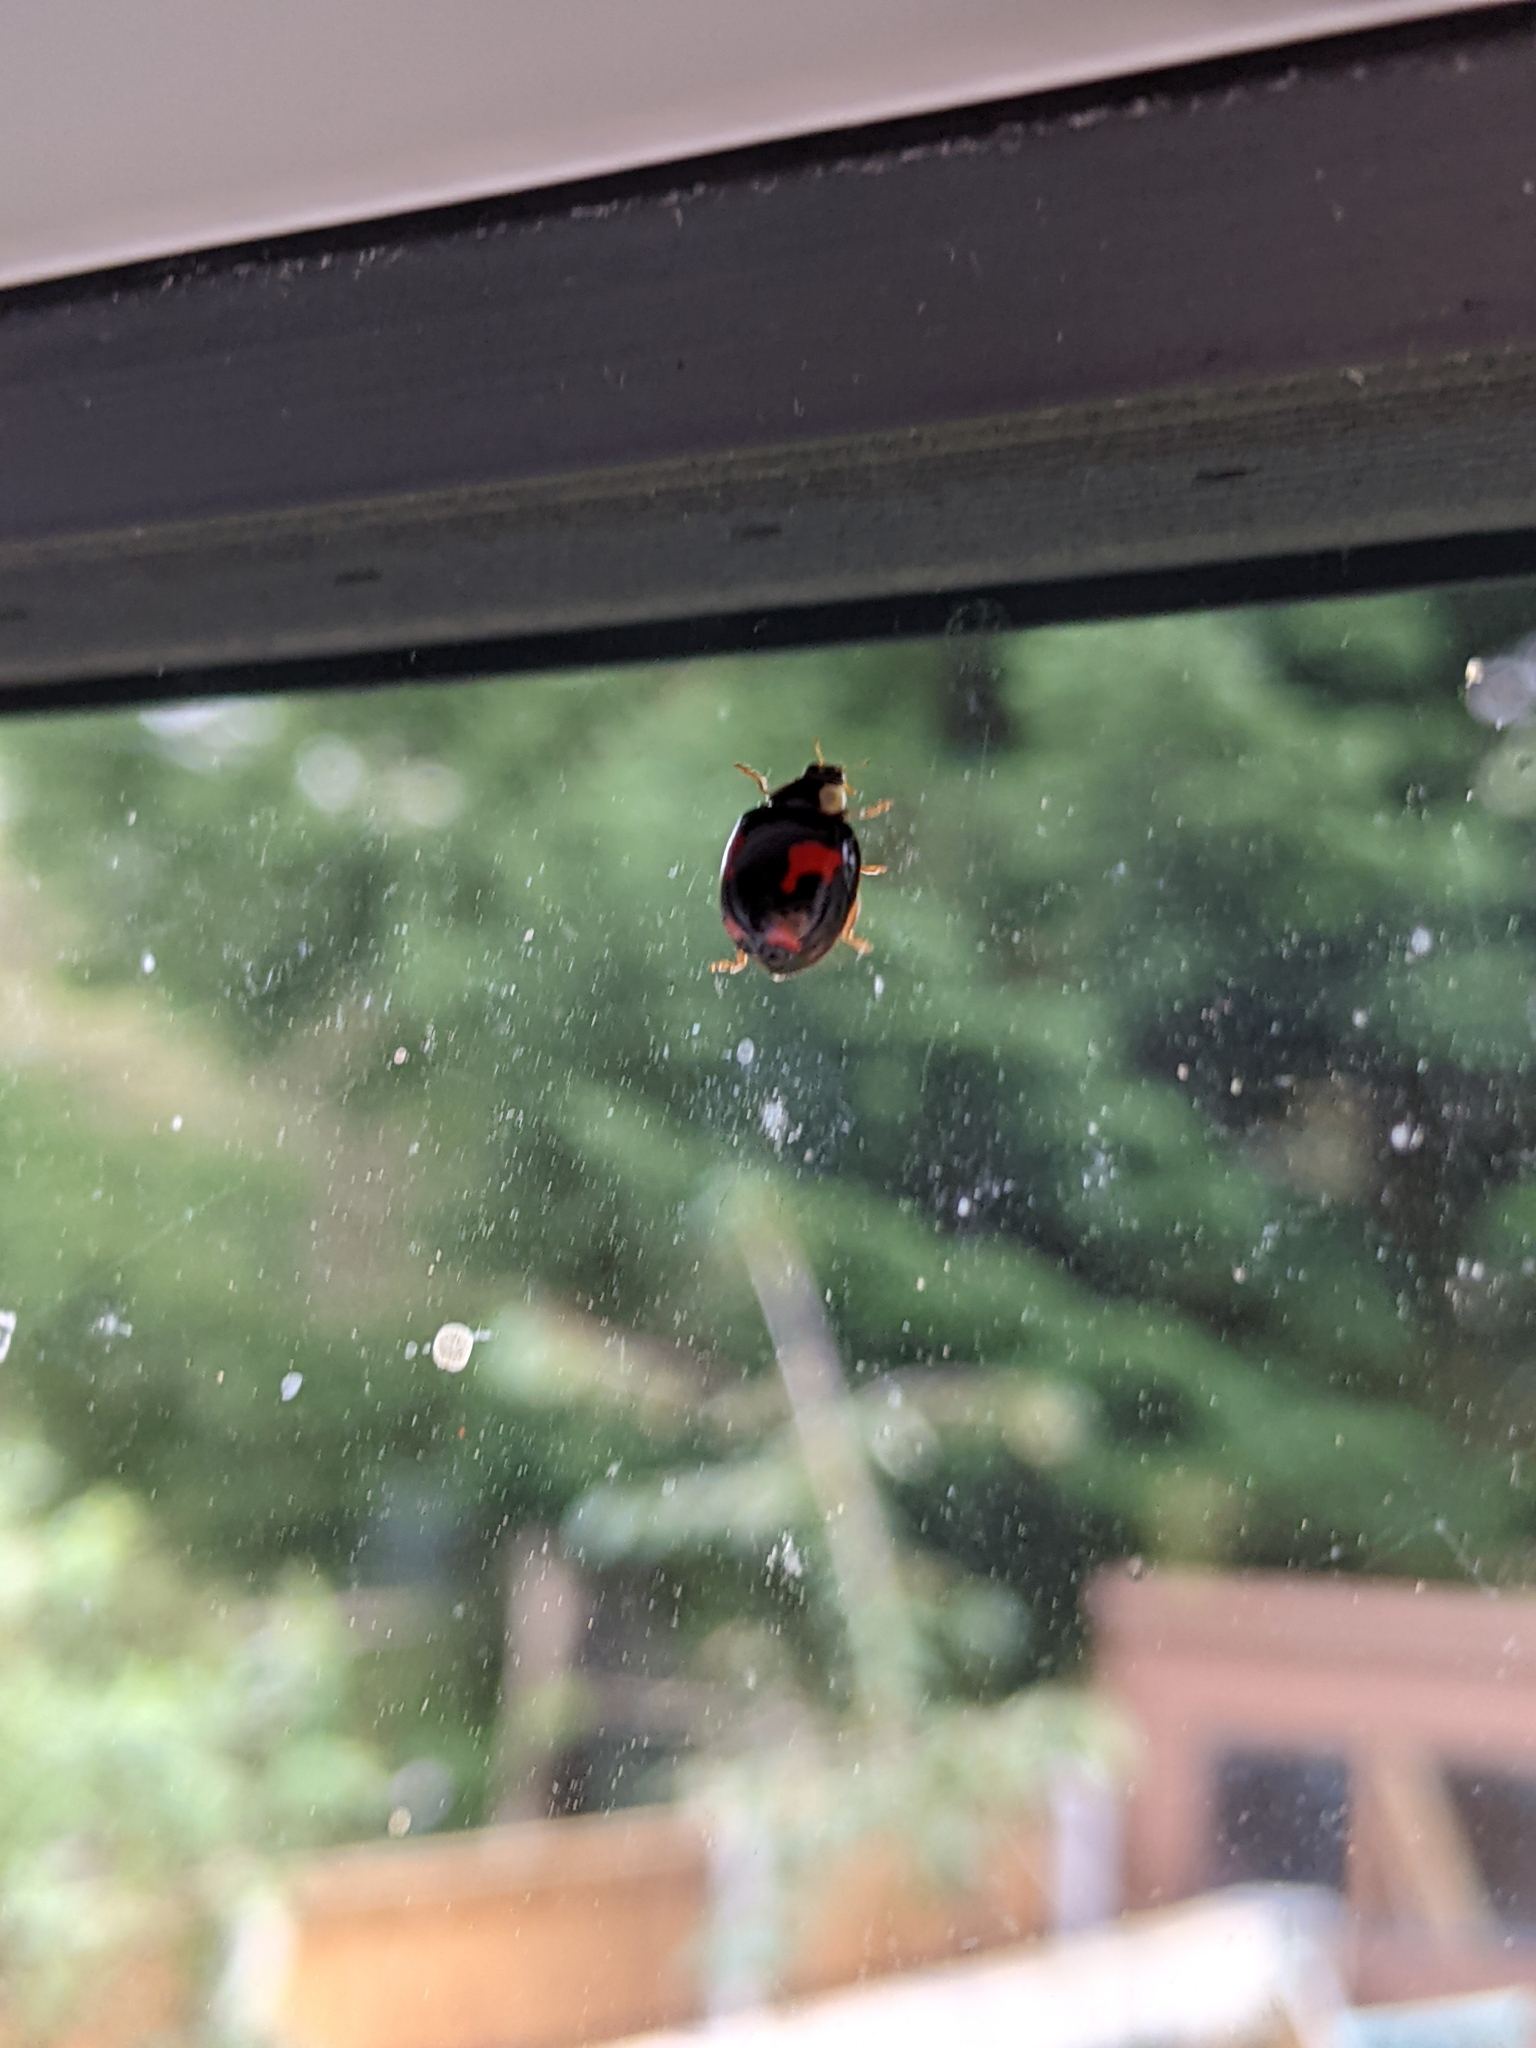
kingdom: Animalia
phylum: Arthropoda
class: Insecta
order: Coleoptera
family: Coccinellidae
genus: Harmonia
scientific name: Harmonia axyridis
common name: Harlequin ladybird
